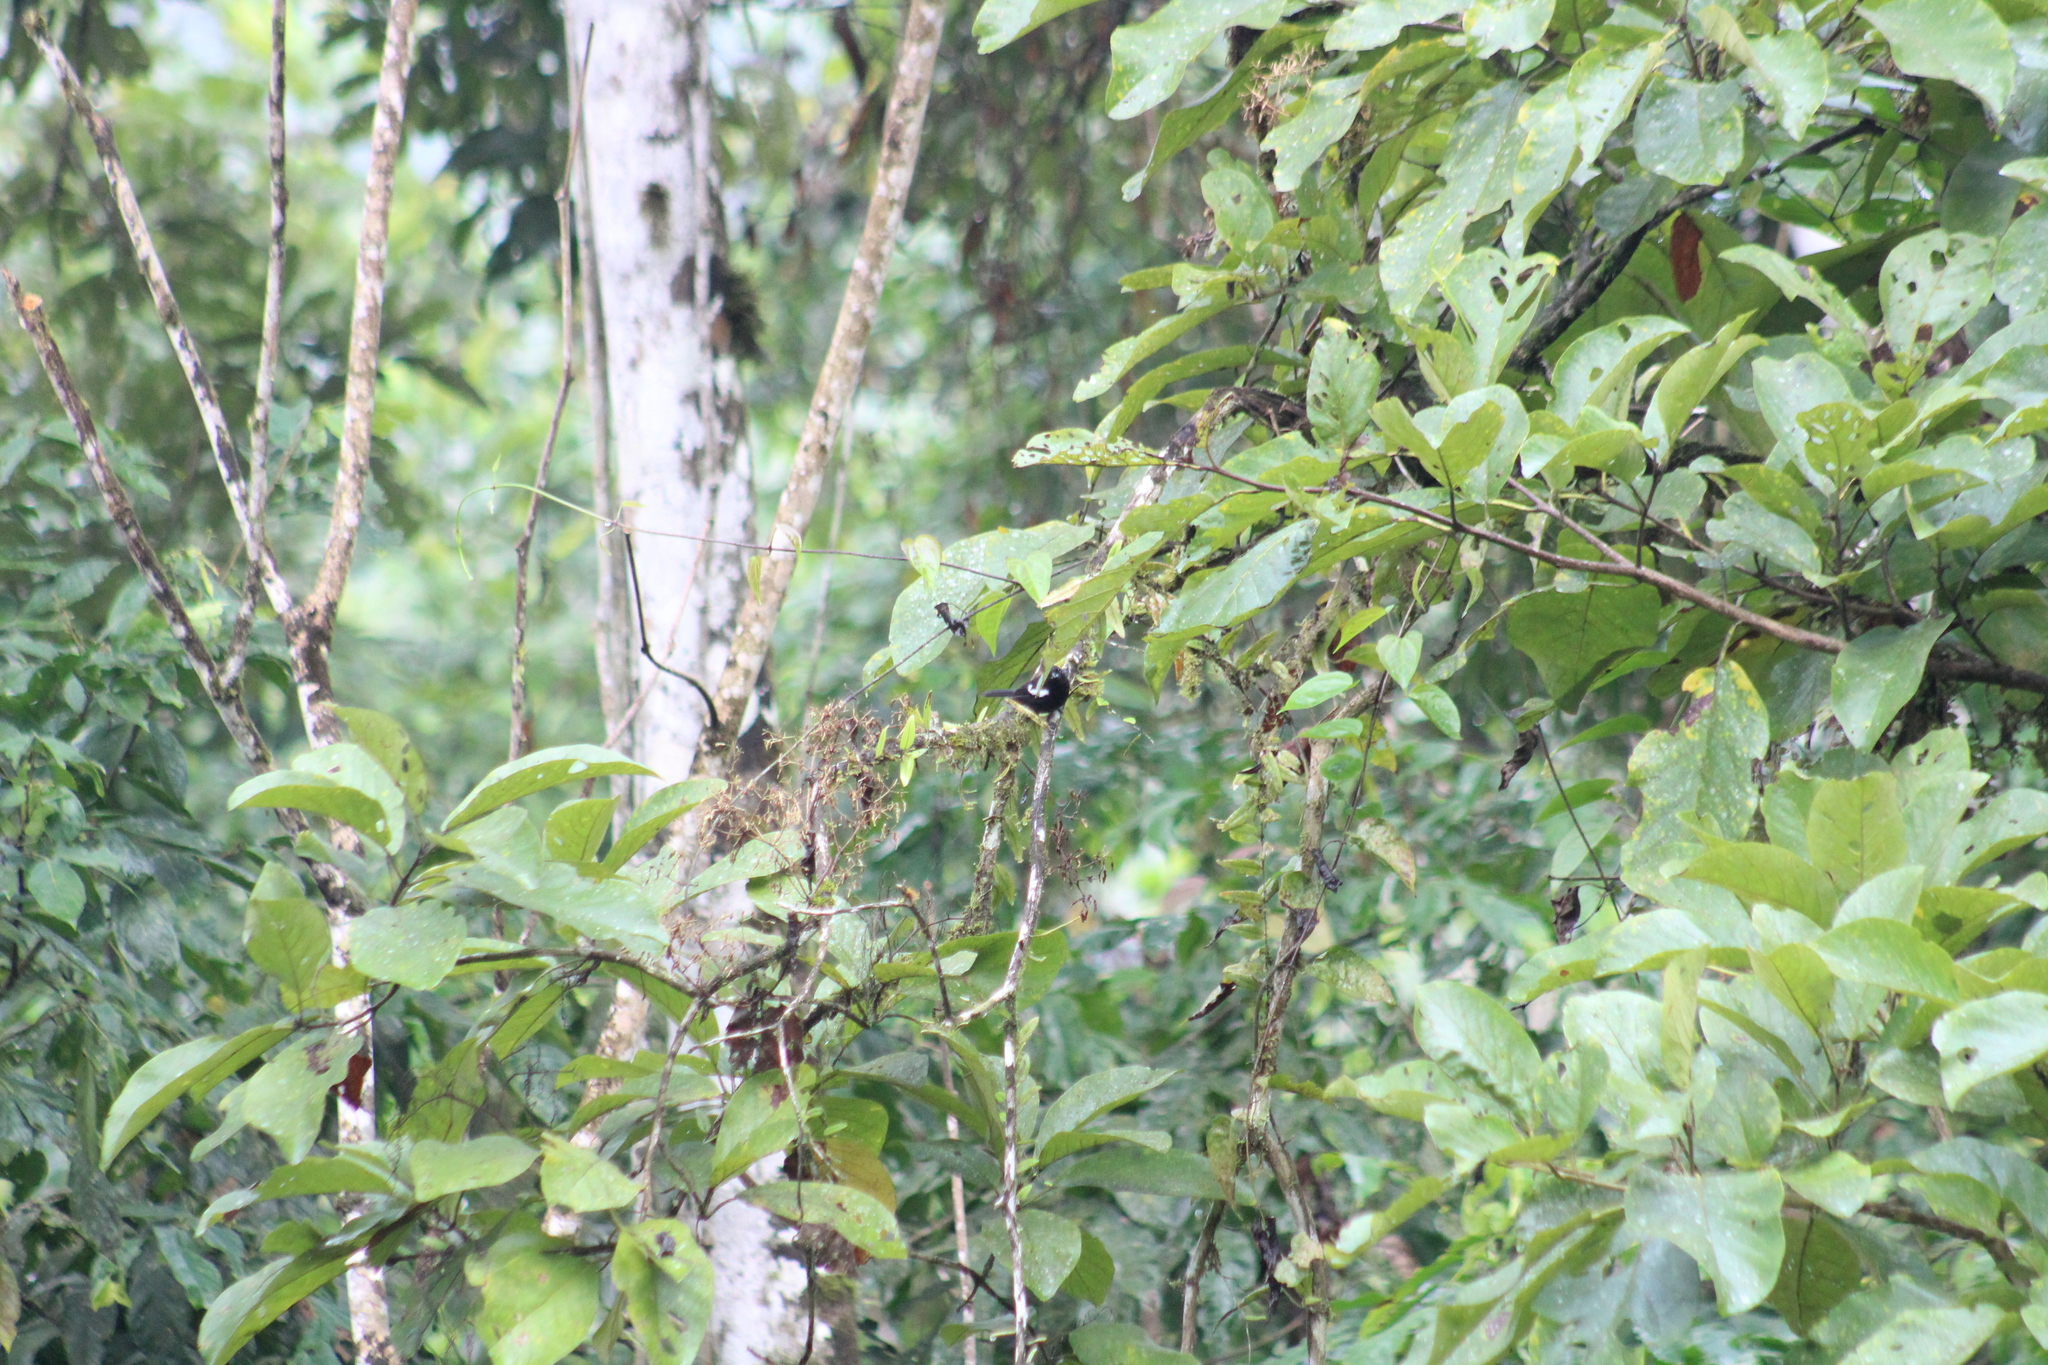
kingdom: Animalia
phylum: Chordata
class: Aves
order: Passeriformes
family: Thraupidae
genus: Loriotus
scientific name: Loriotus luctuosus
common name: White-shouldered tanager
